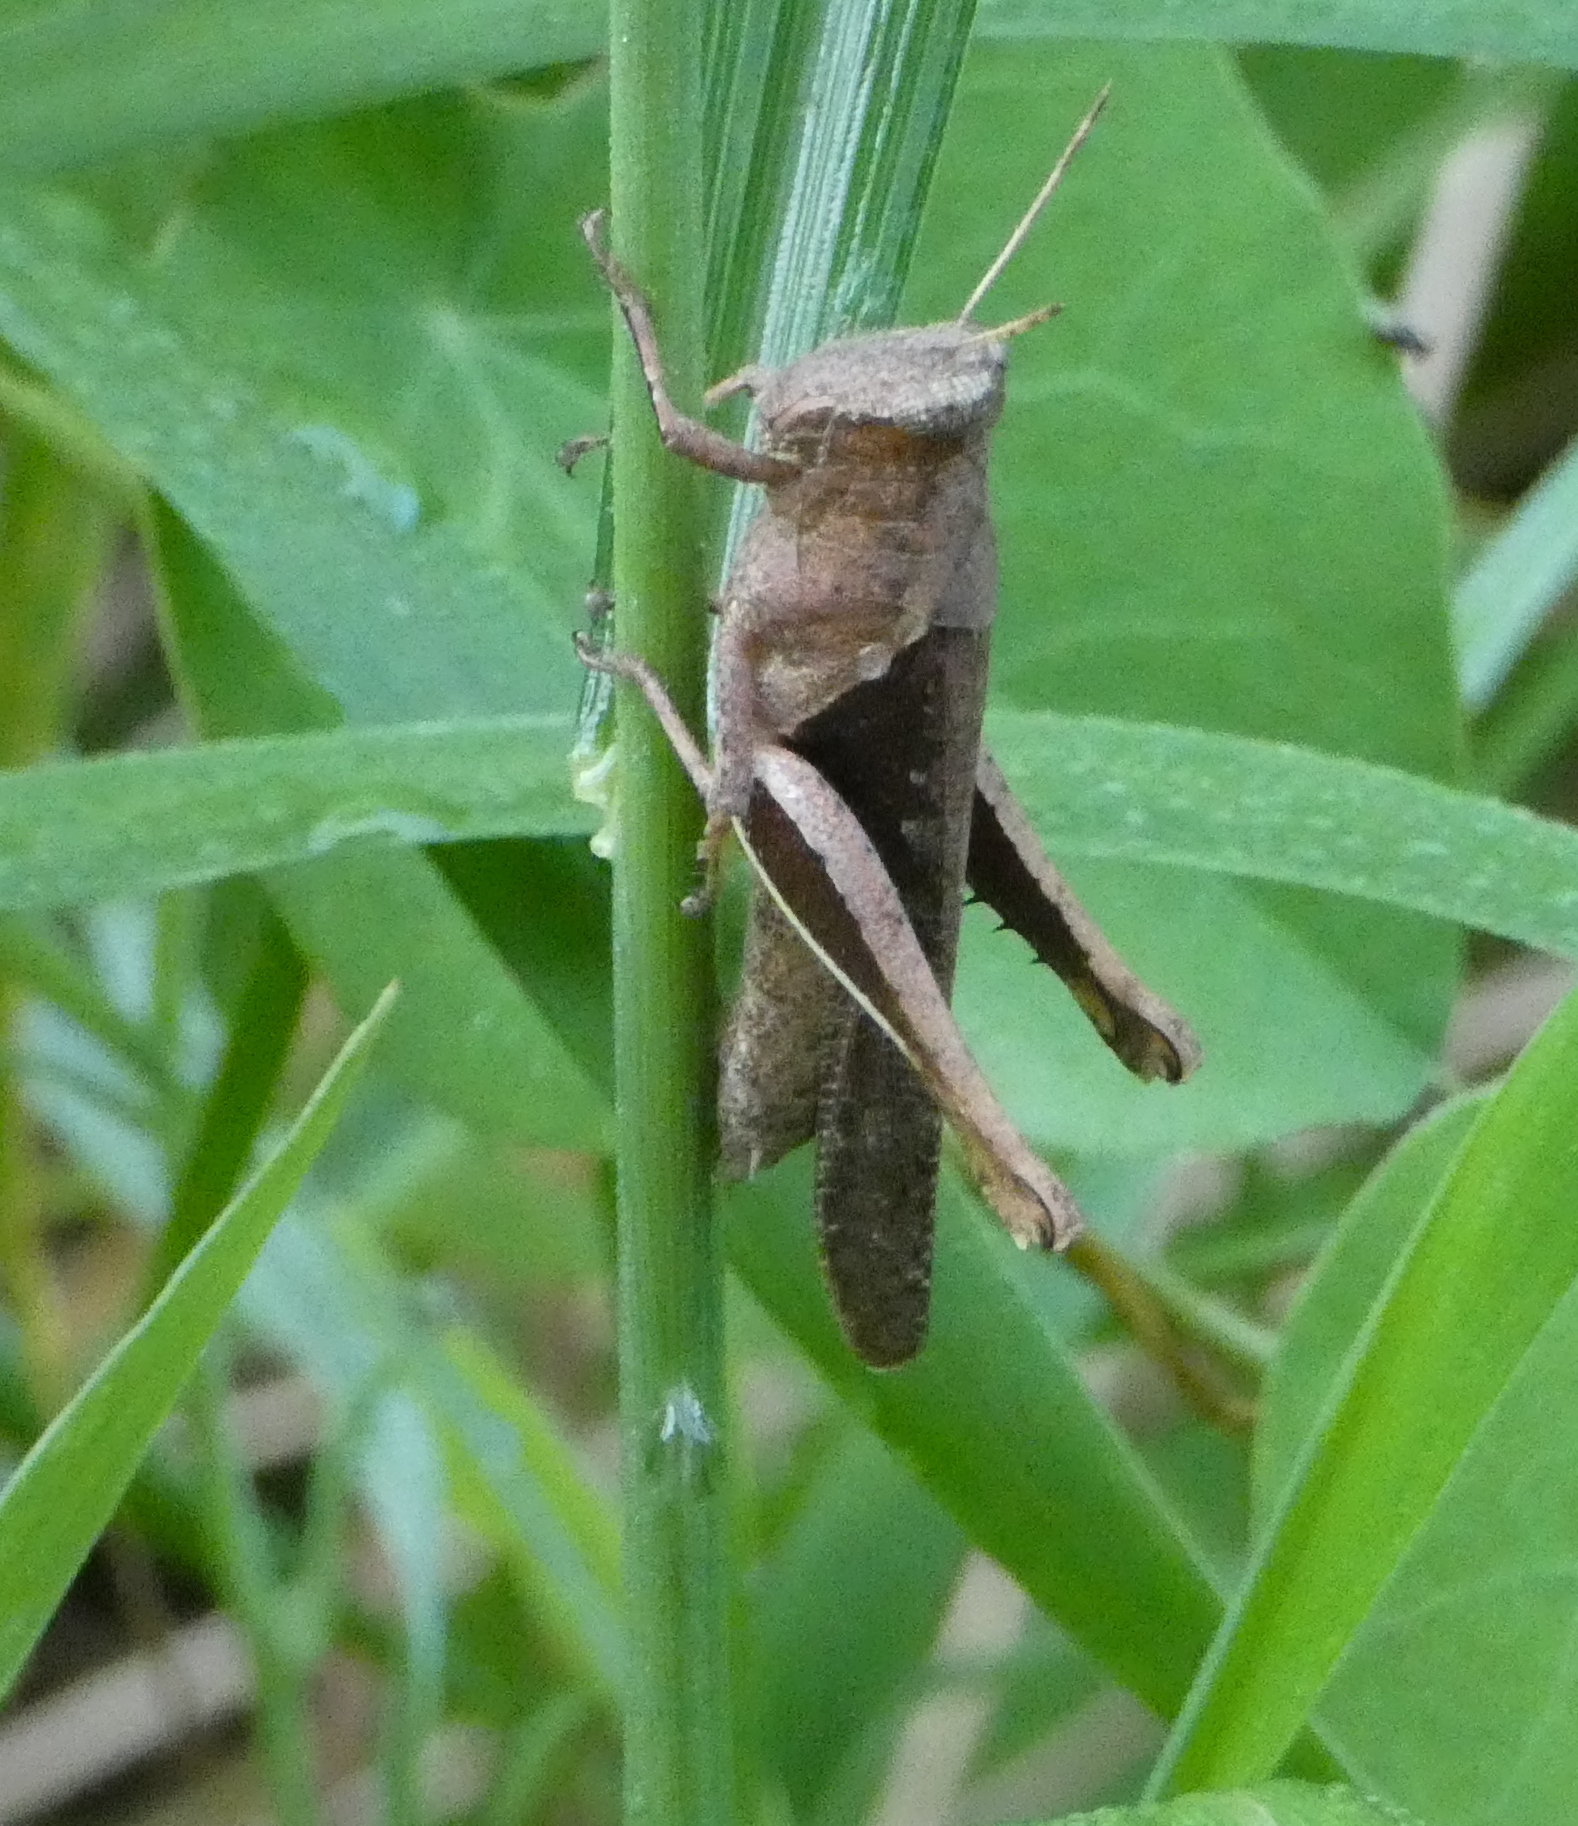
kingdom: Animalia
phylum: Arthropoda
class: Insecta
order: Orthoptera
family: Acrididae
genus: Abracris
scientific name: Abracris flavolineata
